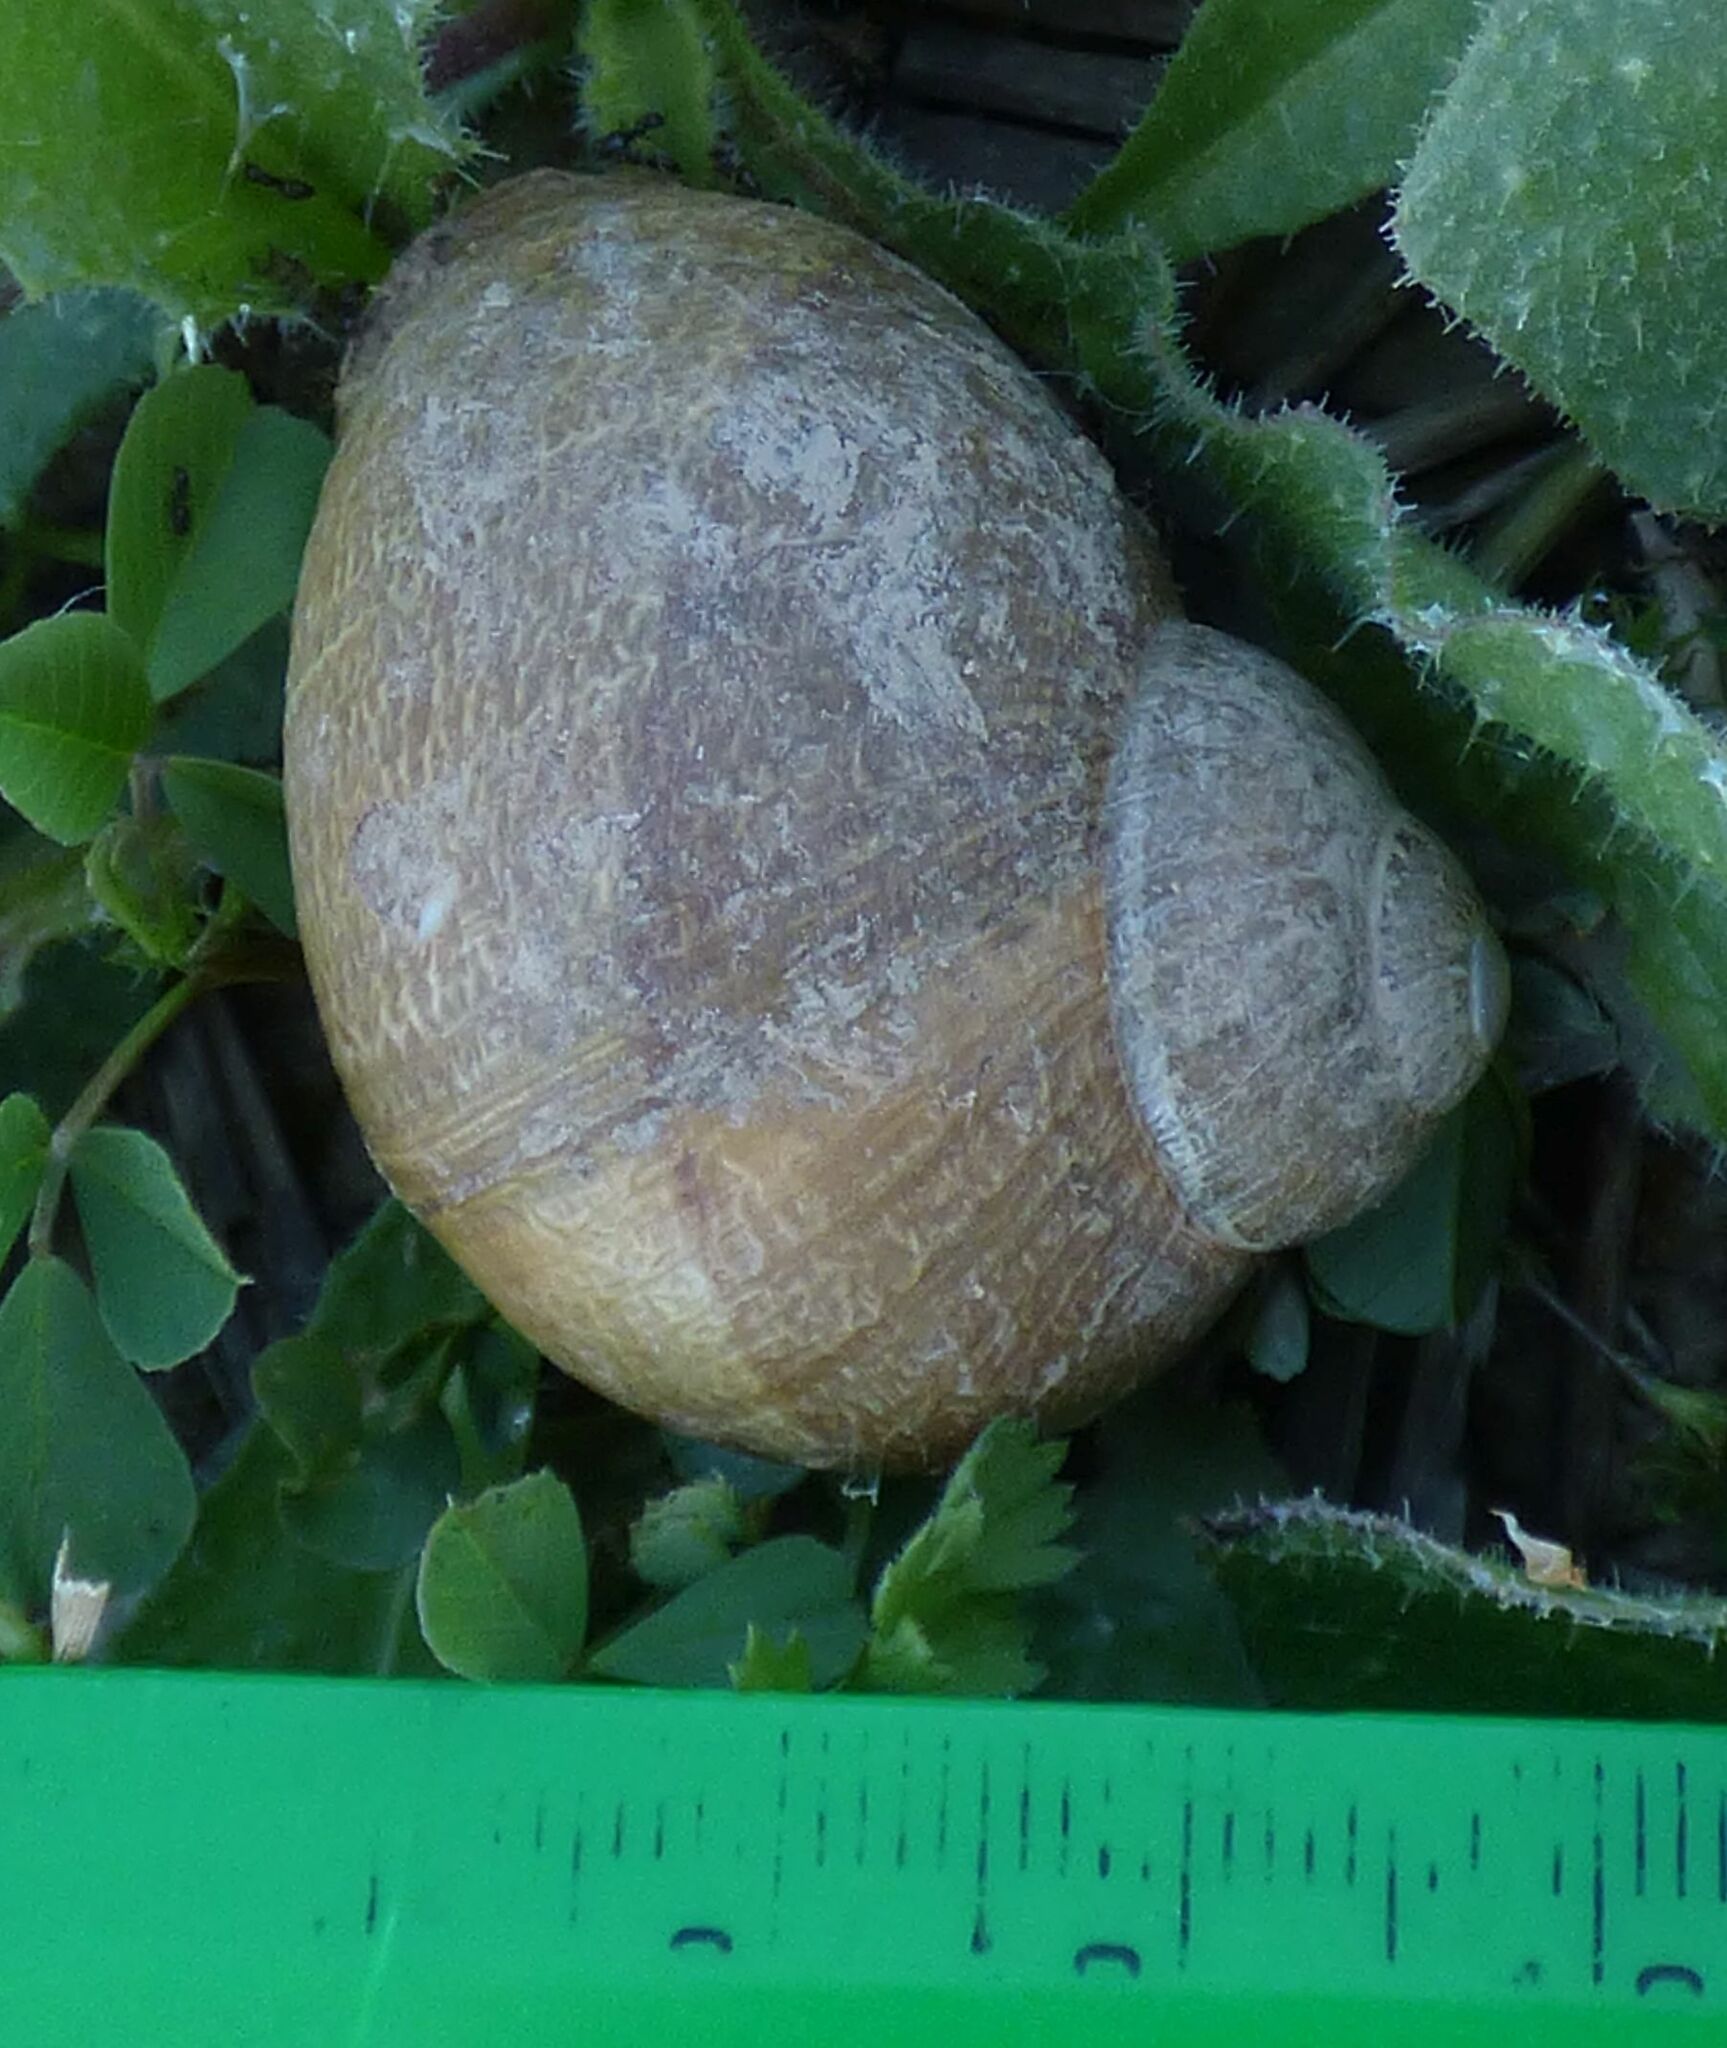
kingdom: Animalia
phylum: Mollusca
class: Gastropoda
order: Stylommatophora
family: Helicidae
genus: Cornu
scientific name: Cornu aspersum
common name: Brown garden snail
